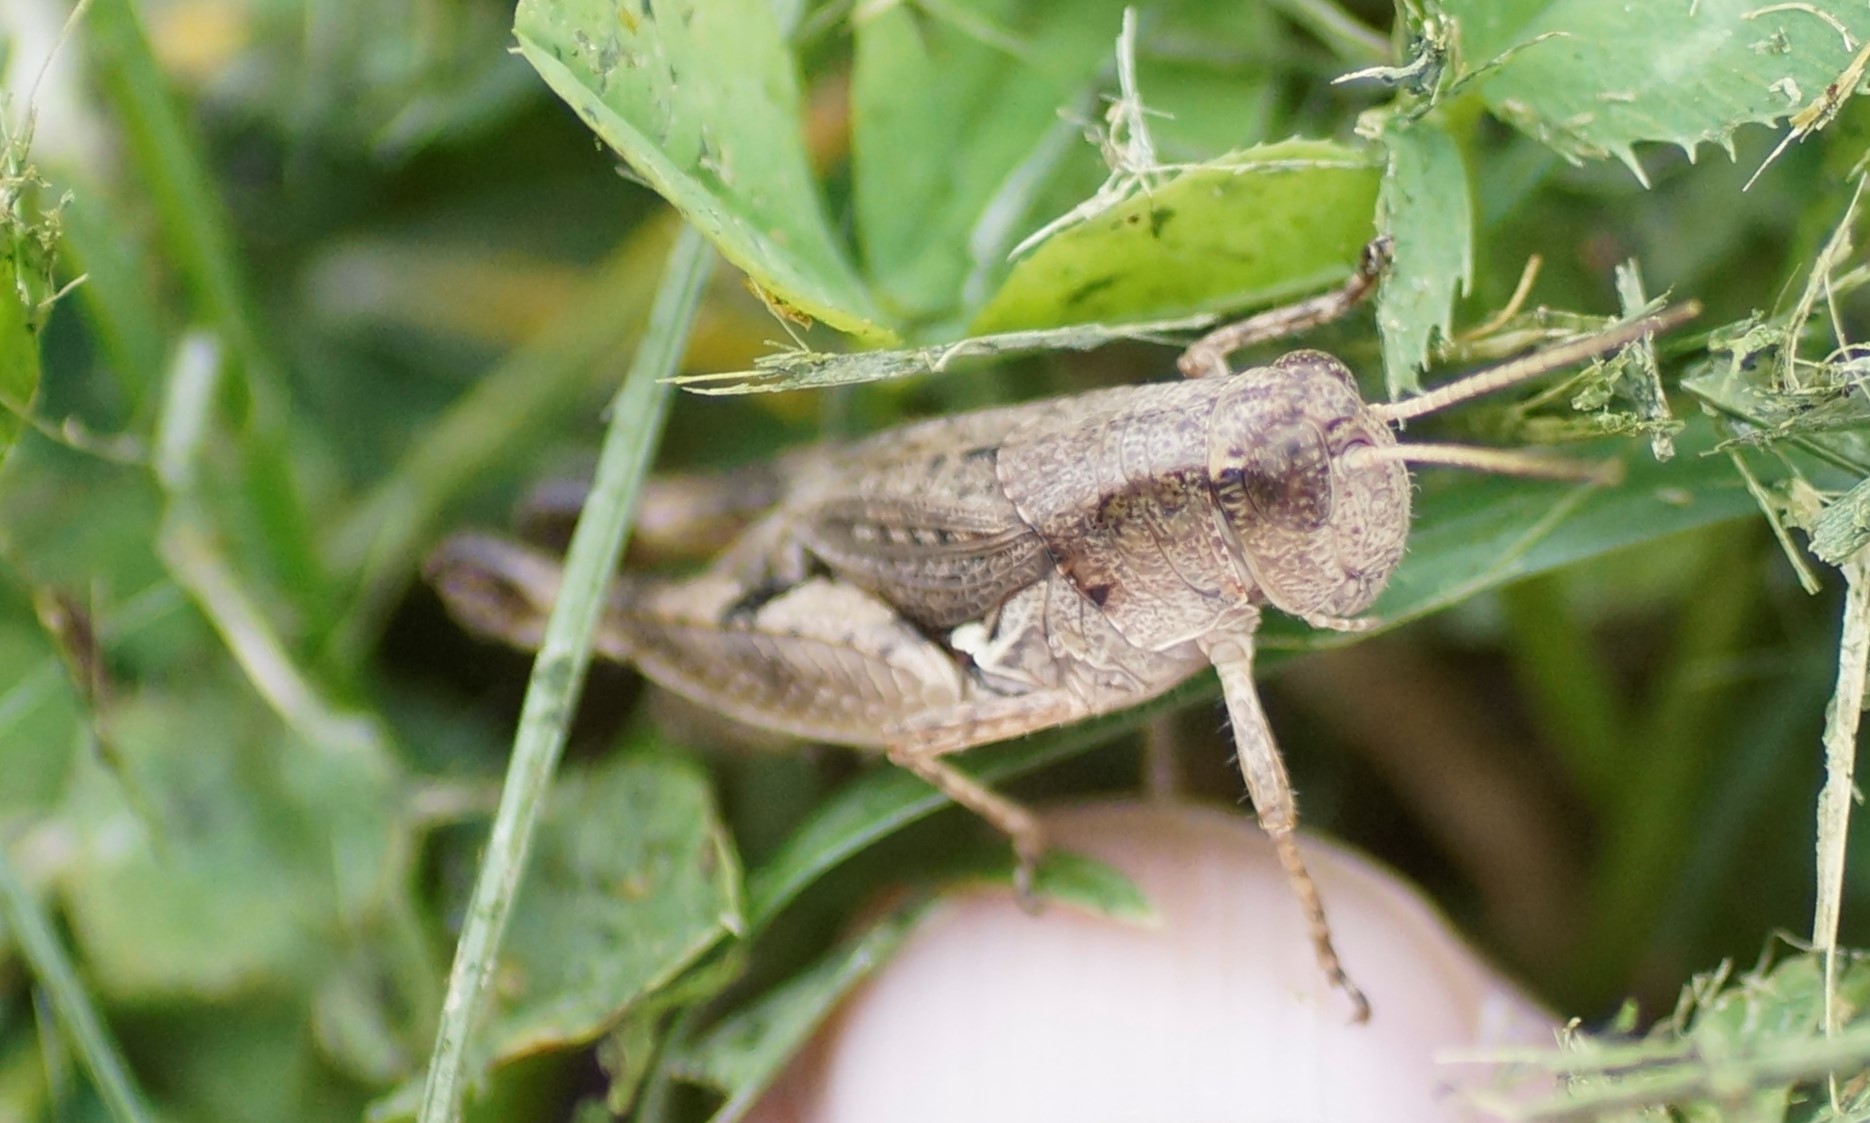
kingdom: Animalia
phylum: Arthropoda
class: Insecta
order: Orthoptera
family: Acrididae
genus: Phaulacridium
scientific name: Phaulacridium vittatum
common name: Wingless grasshopper
